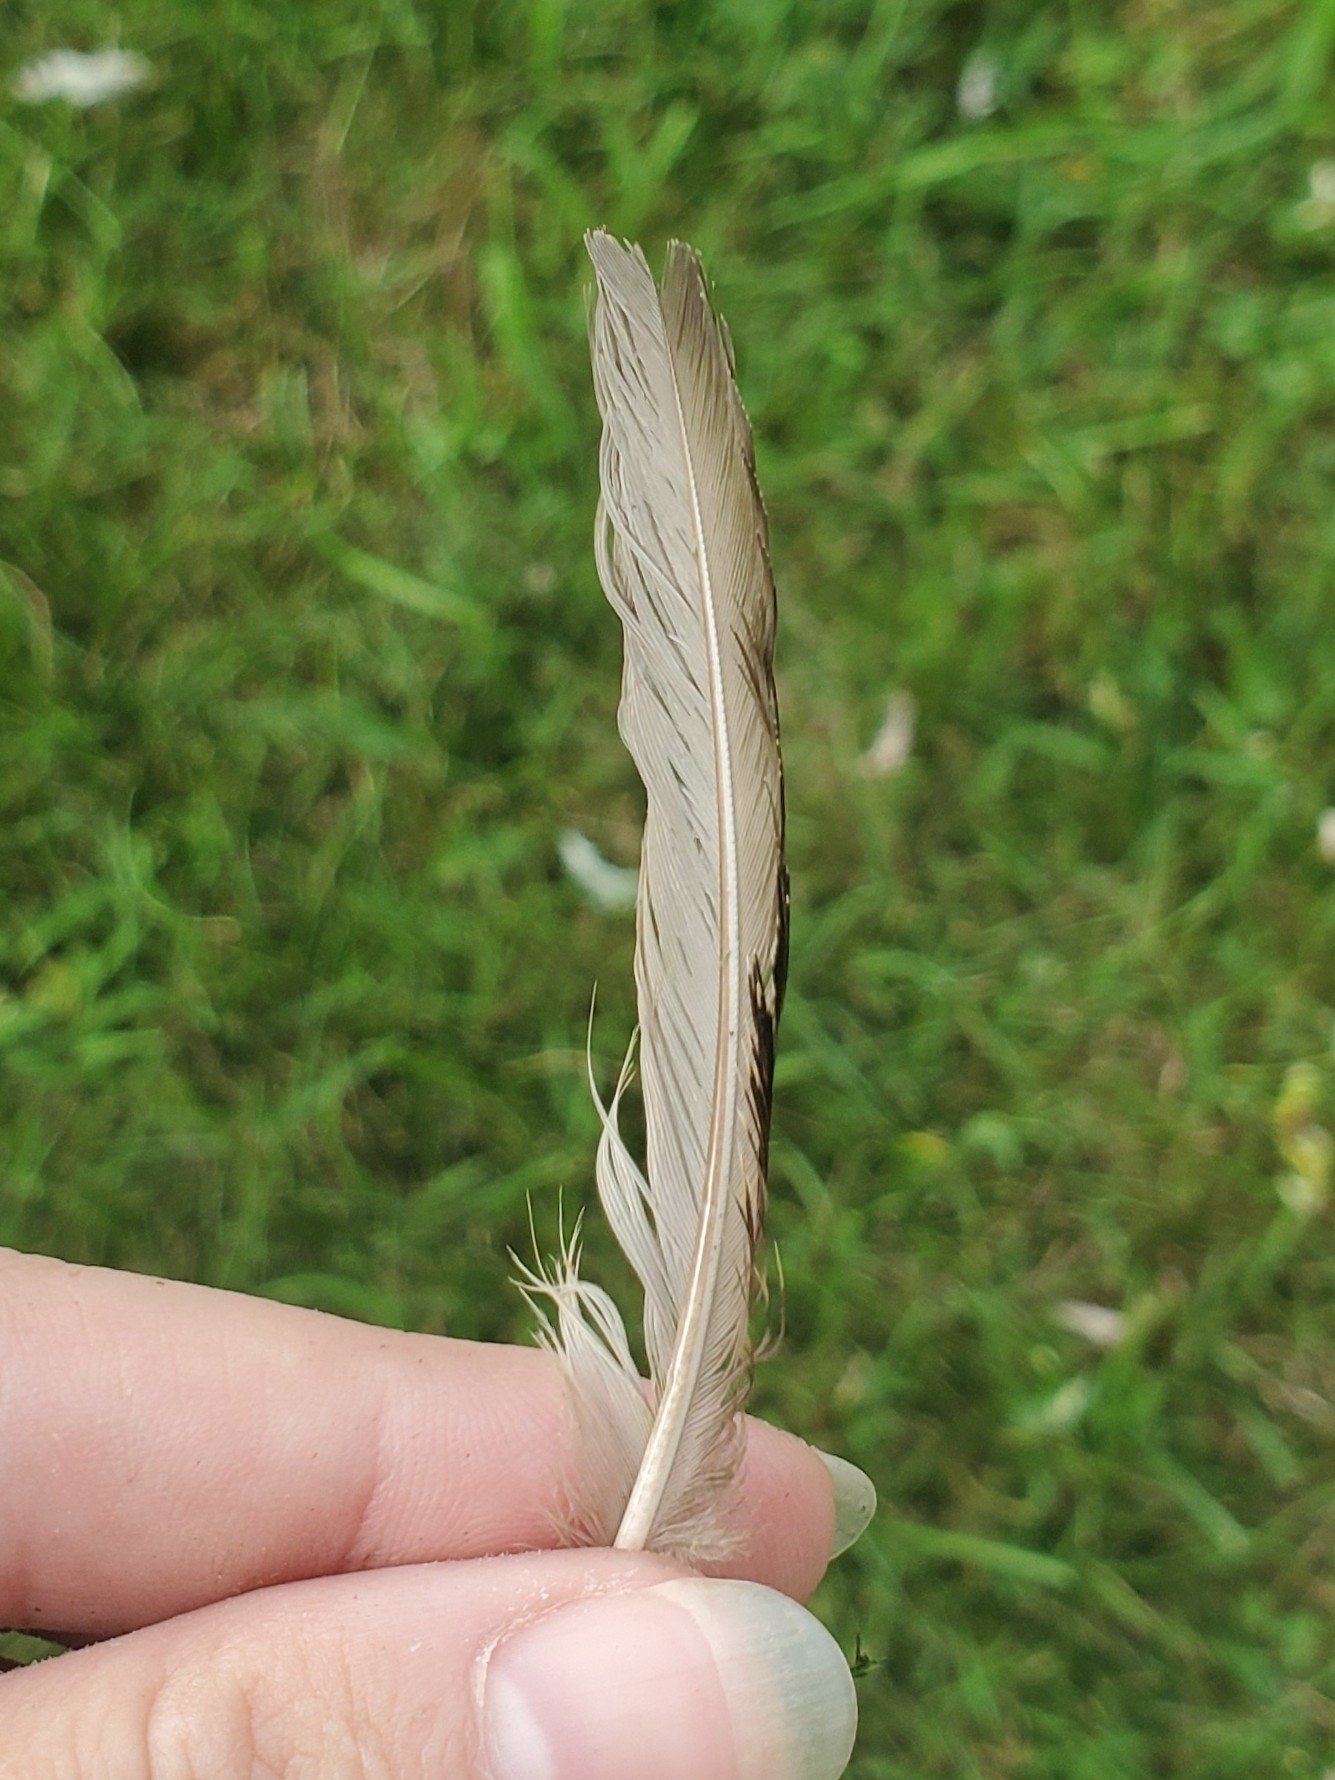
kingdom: Animalia
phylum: Chordata
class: Aves
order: Passeriformes
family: Sturnidae
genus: Sturnus
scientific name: Sturnus vulgaris
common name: Common starling
